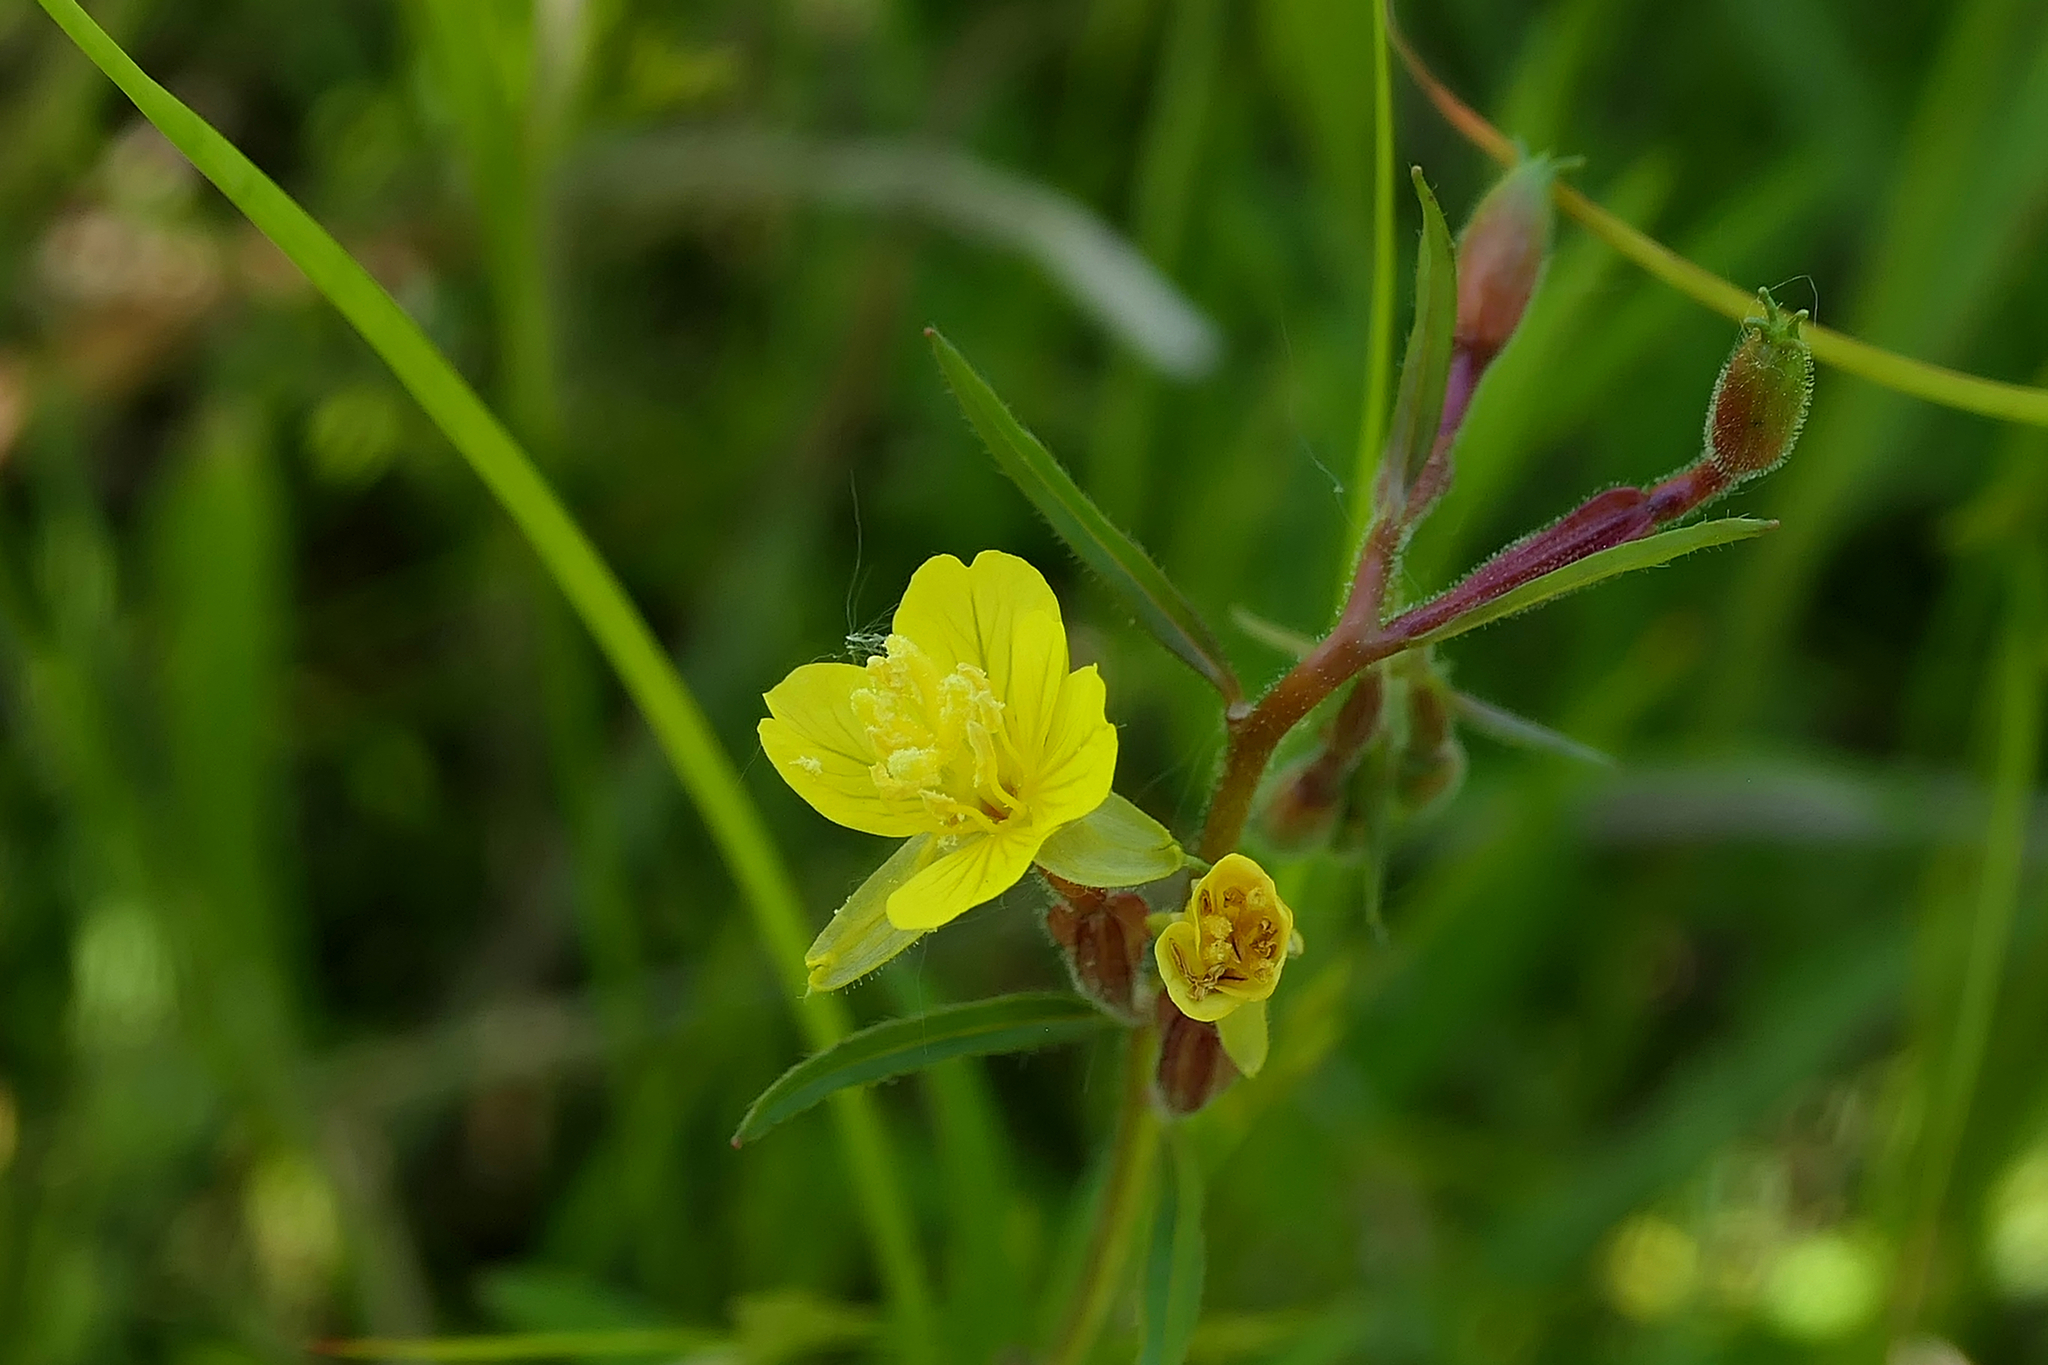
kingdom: Plantae
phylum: Tracheophyta
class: Magnoliopsida
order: Myrtales
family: Onagraceae
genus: Oenothera
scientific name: Oenothera perennis
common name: Small sundrops
